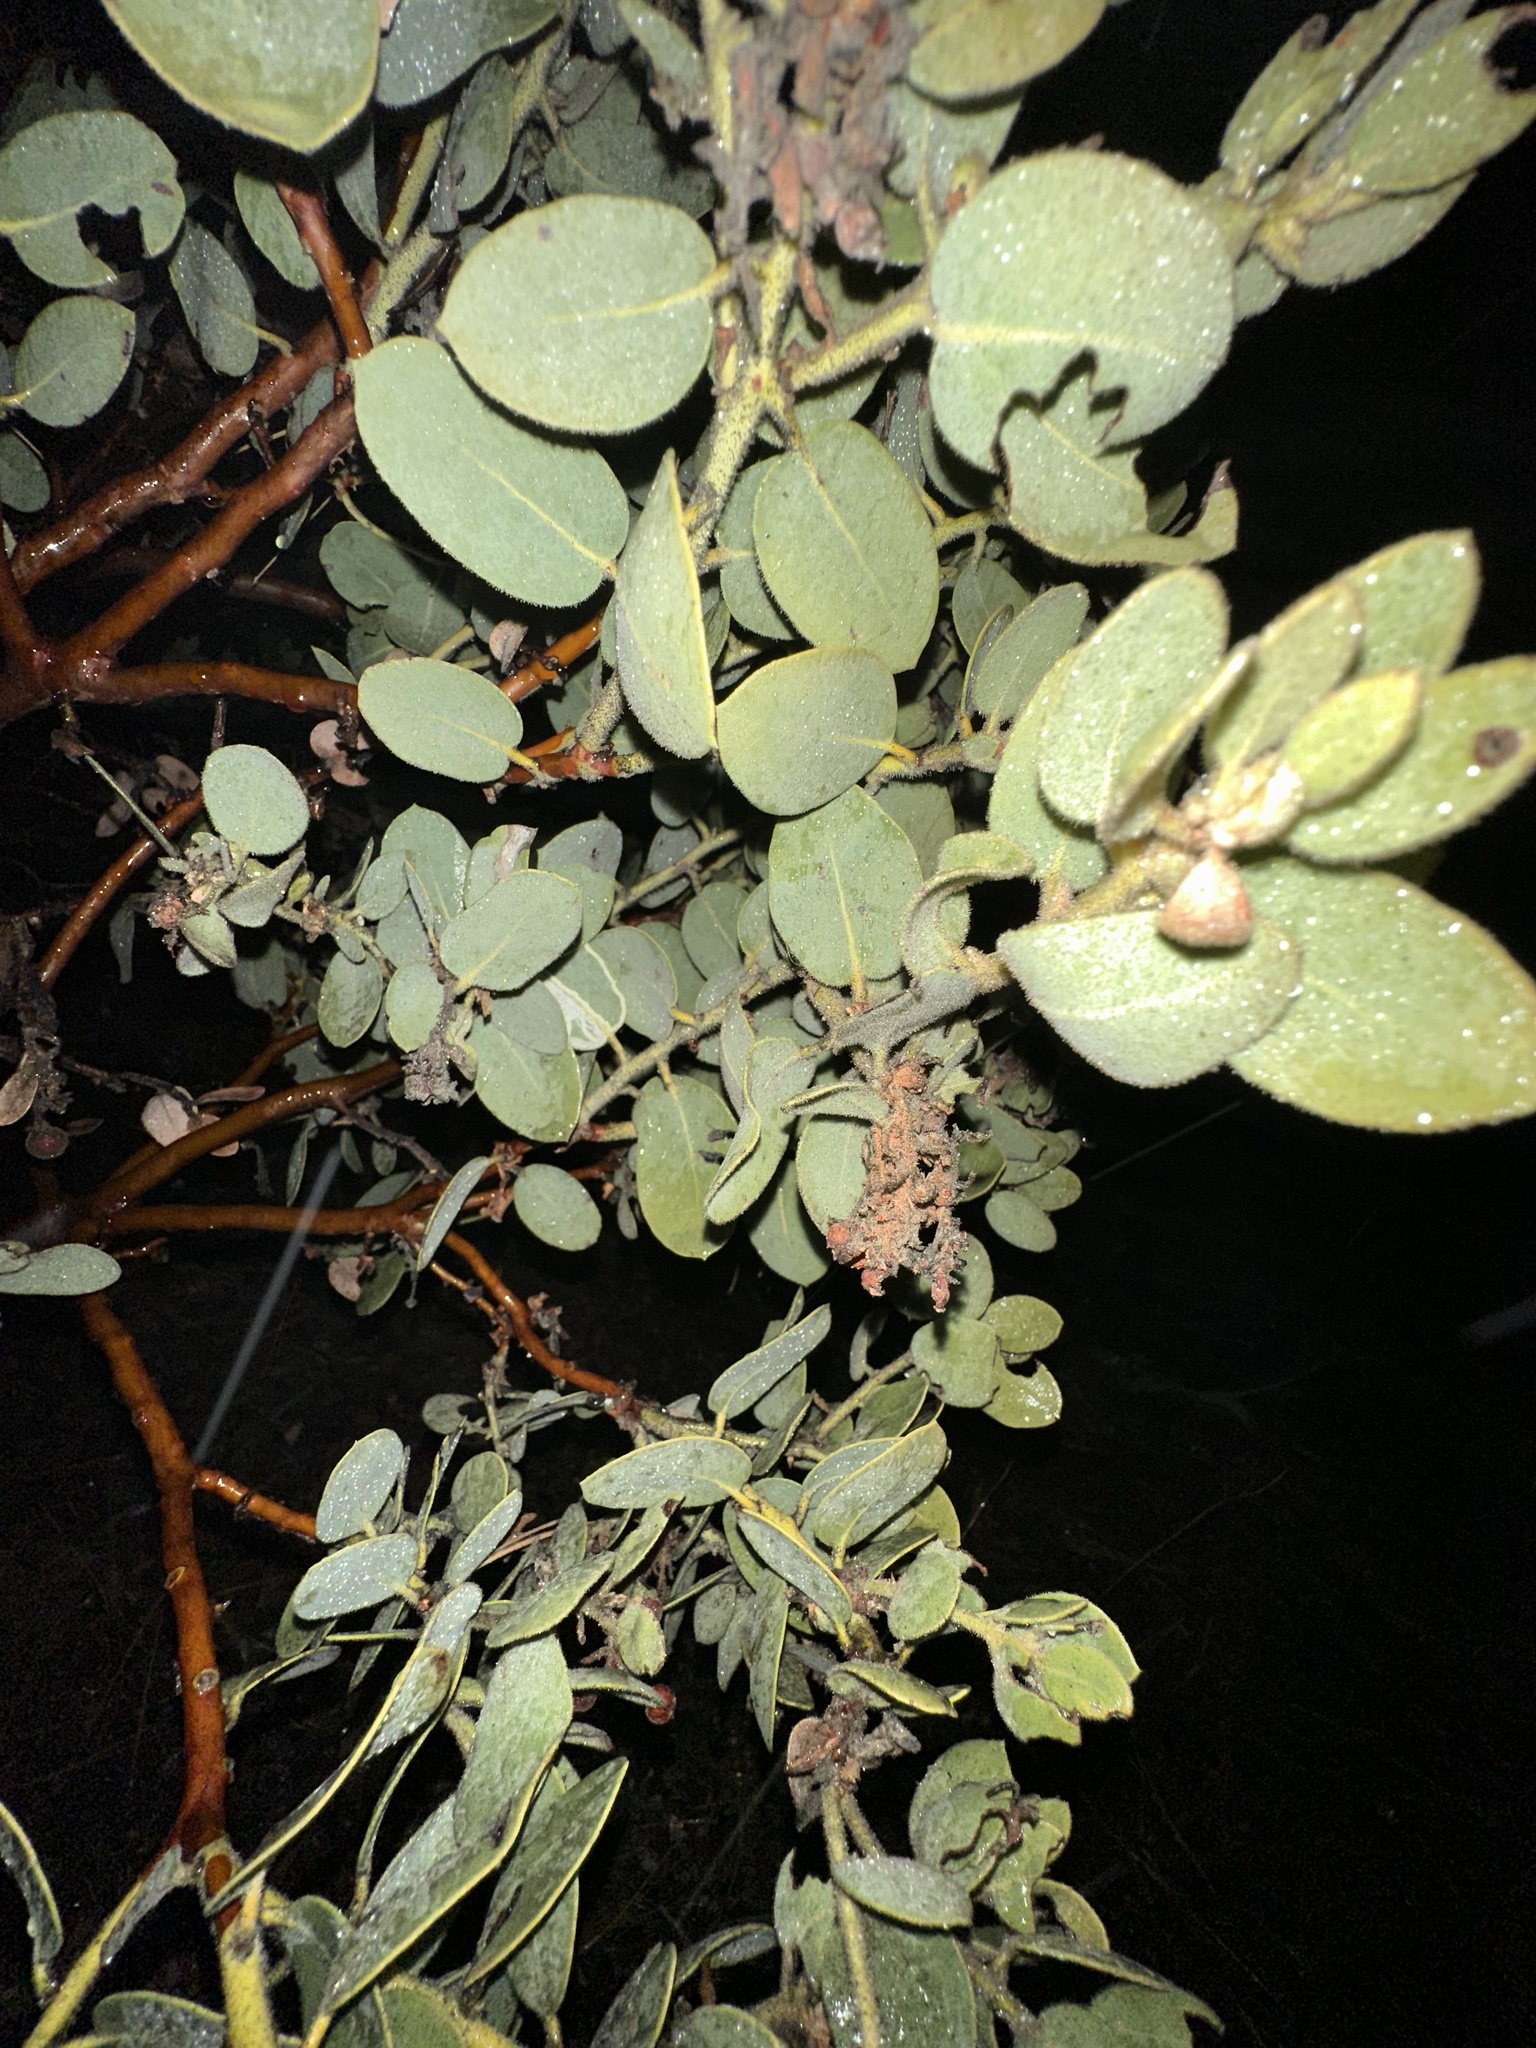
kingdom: Plantae
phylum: Tracheophyta
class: Magnoliopsida
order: Ericales
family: Ericaceae
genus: Arctostaphylos
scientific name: Arctostaphylos pringlei
